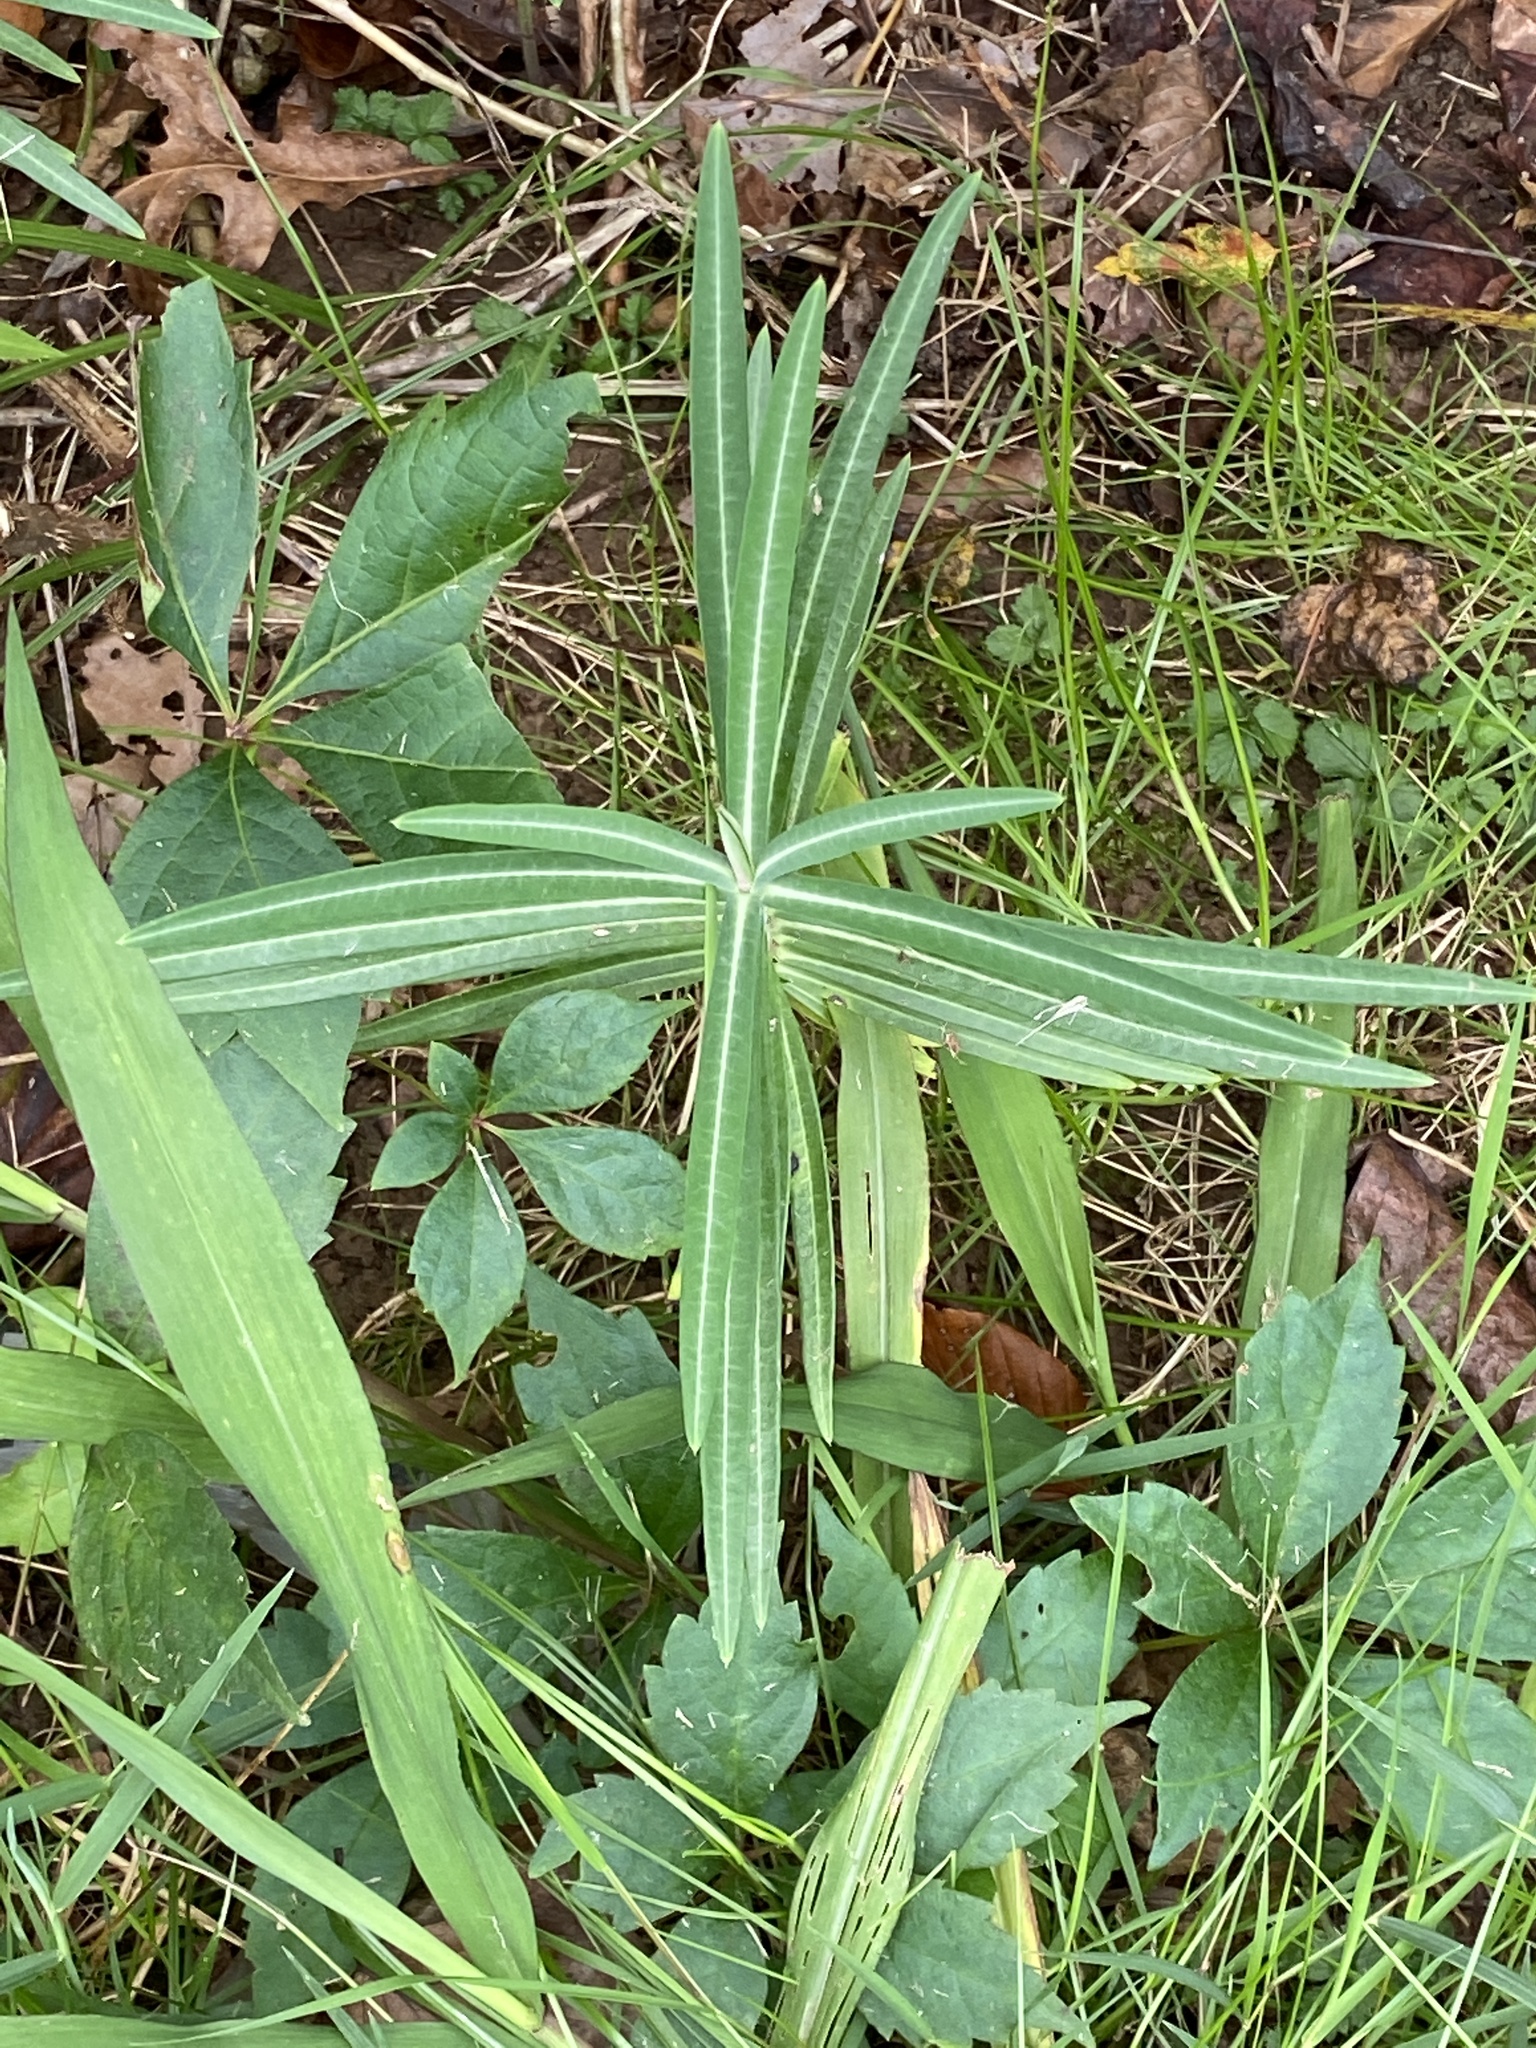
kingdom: Plantae
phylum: Tracheophyta
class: Magnoliopsida
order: Malpighiales
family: Euphorbiaceae
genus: Euphorbia
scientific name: Euphorbia lathyris
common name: Caper spurge
